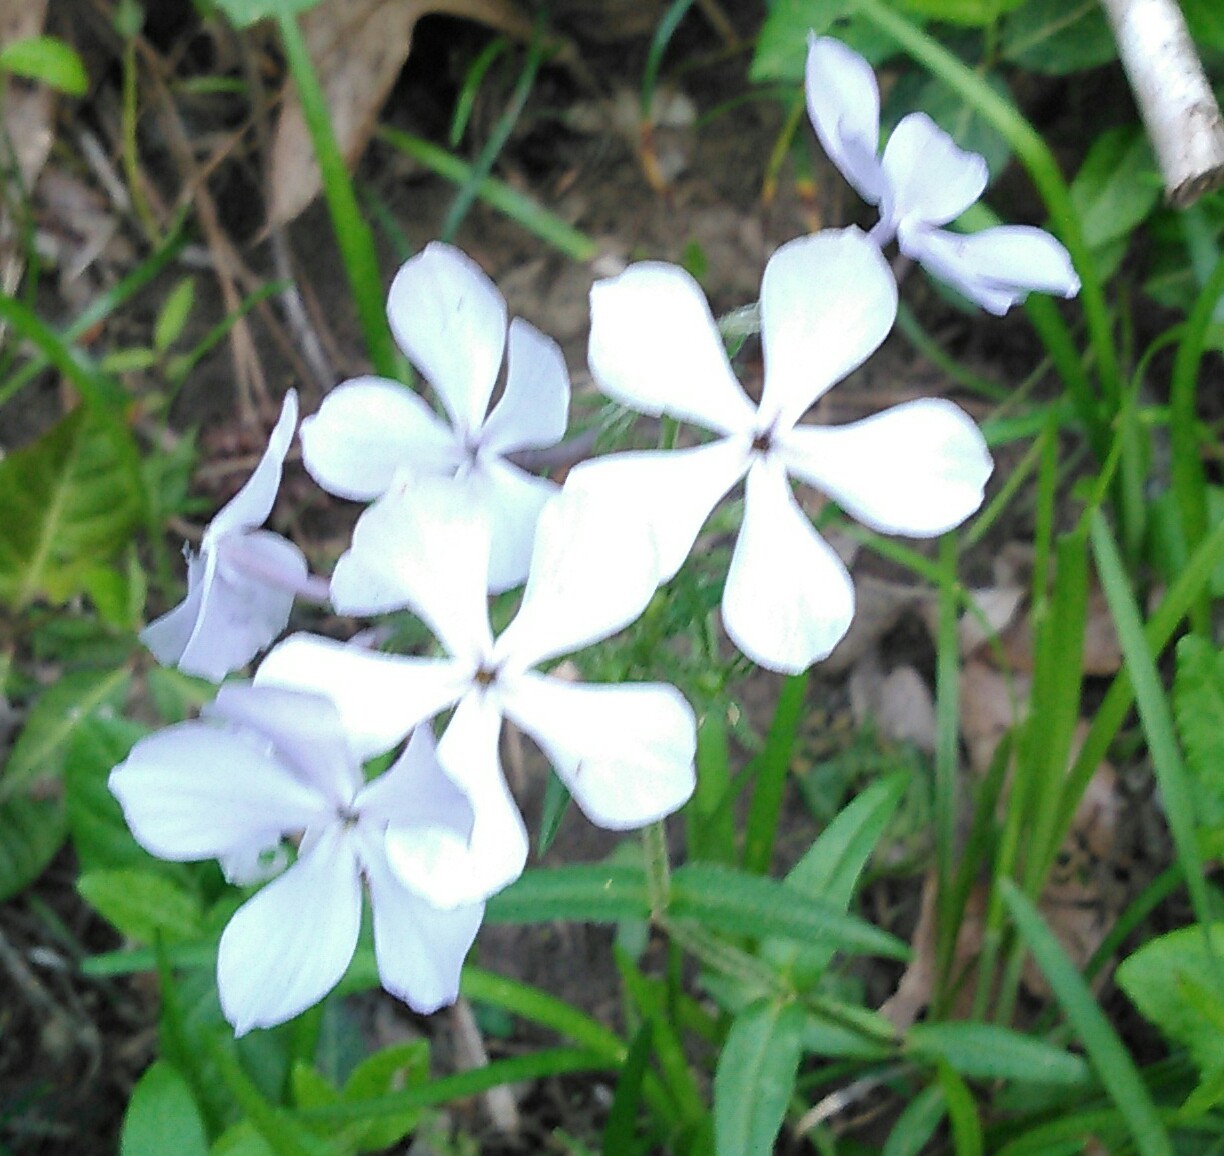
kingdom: Plantae
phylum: Tracheophyta
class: Magnoliopsida
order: Ericales
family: Polemoniaceae
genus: Phlox
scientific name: Phlox divaricata
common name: Blue phlox
